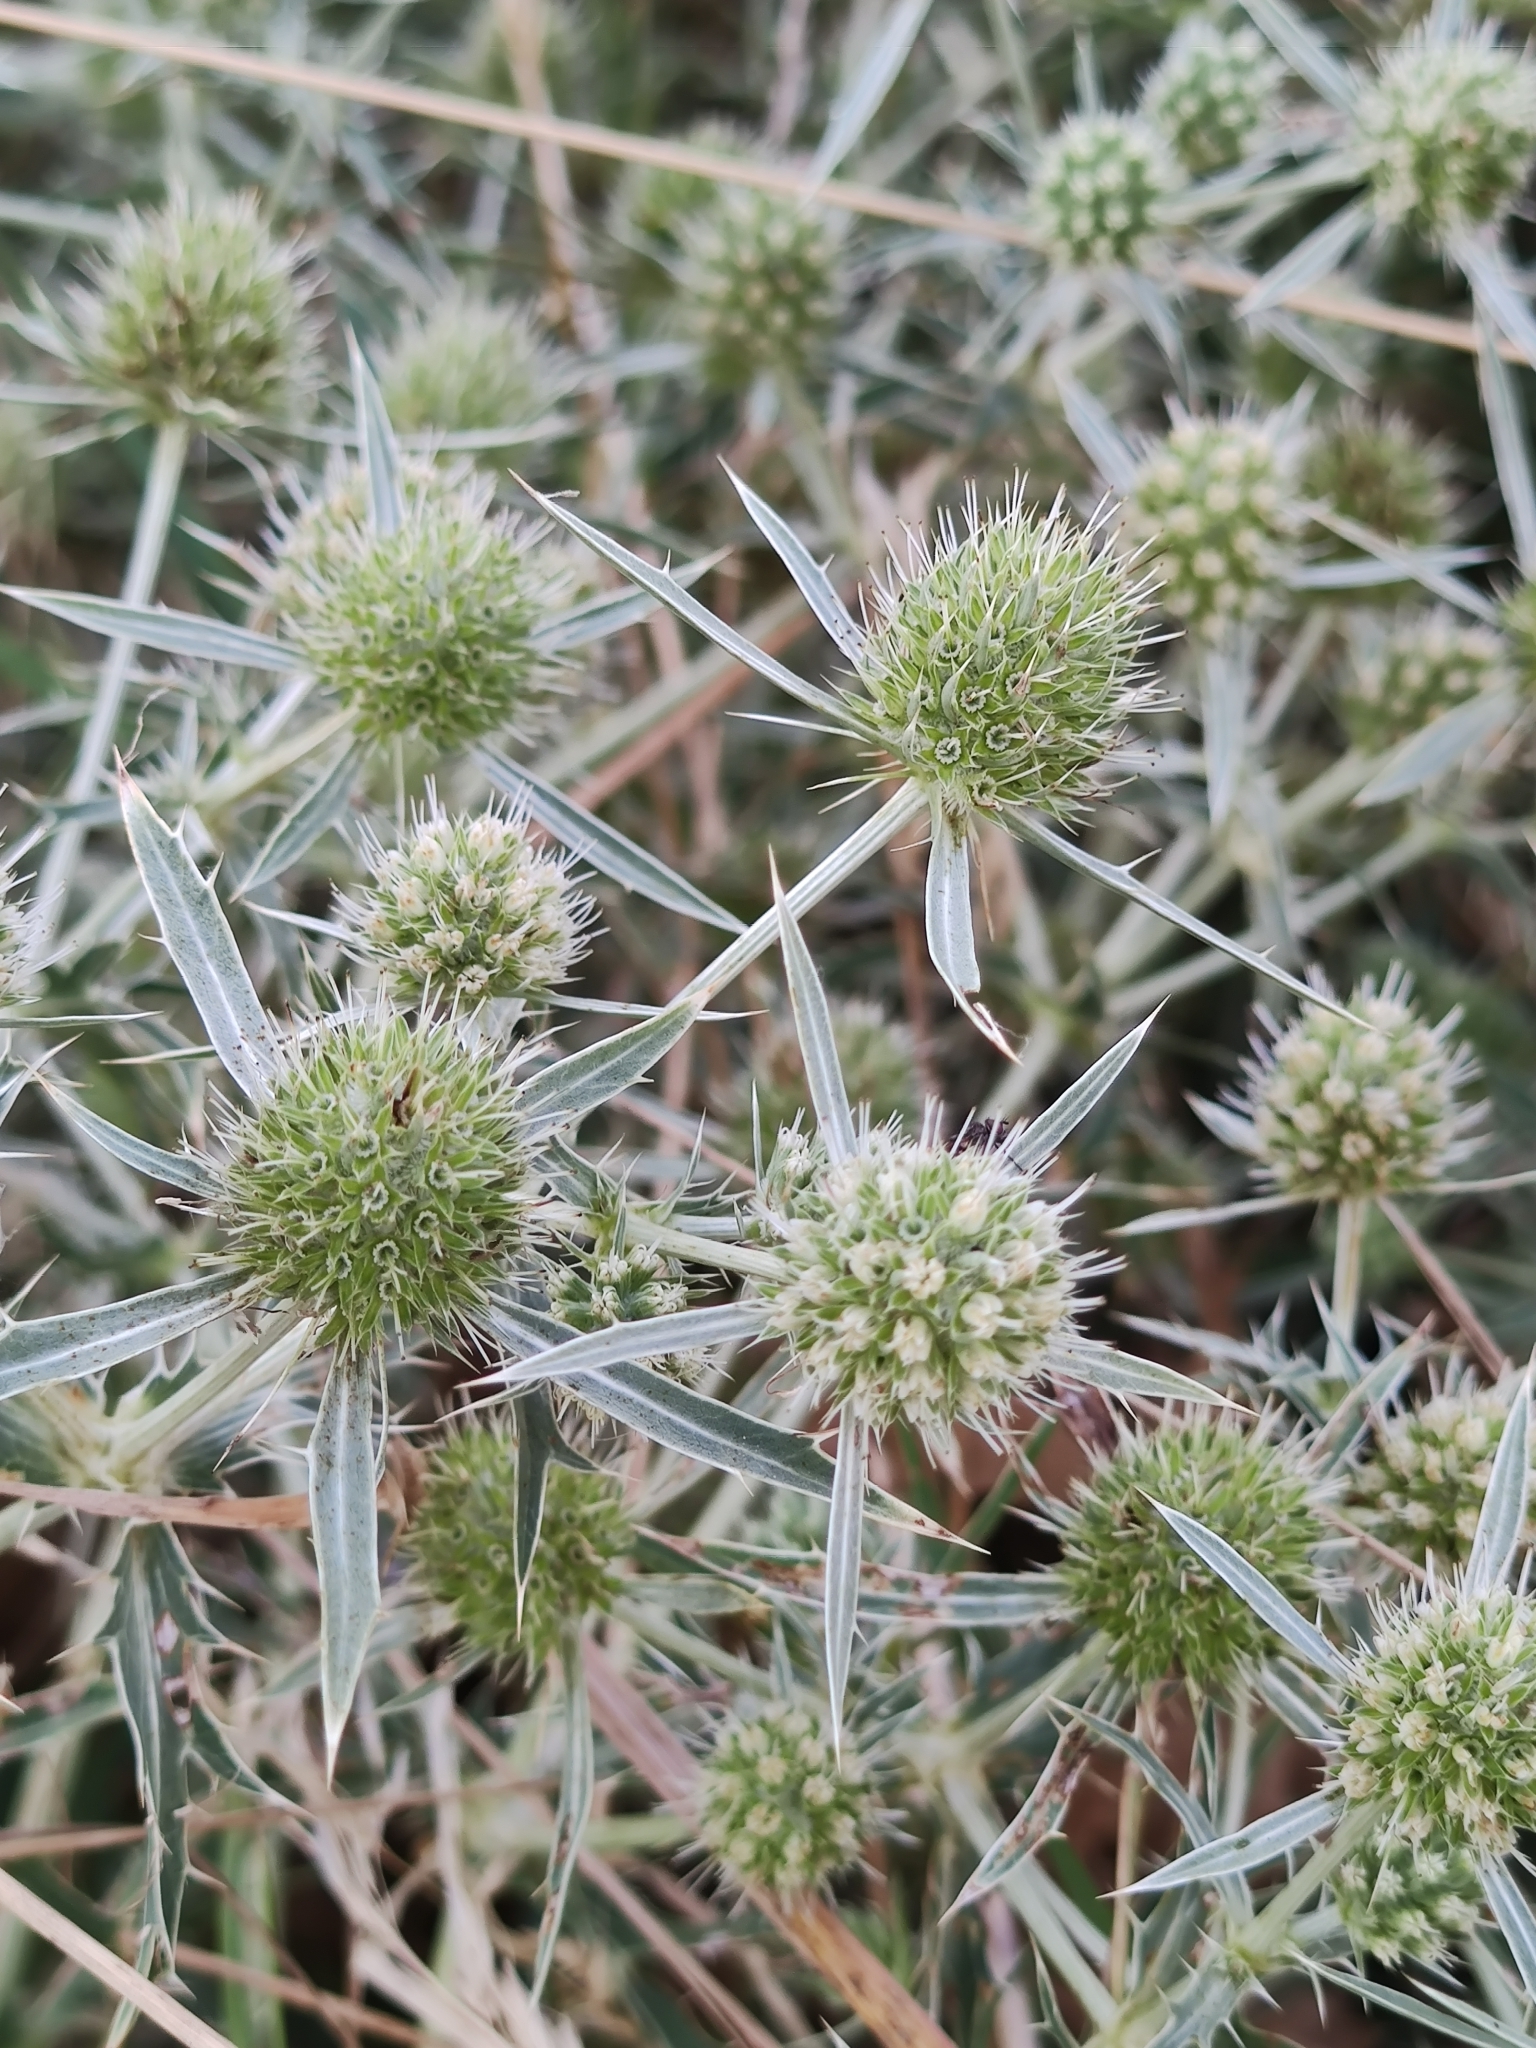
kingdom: Plantae
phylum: Tracheophyta
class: Magnoliopsida
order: Apiales
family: Apiaceae
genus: Eryngium
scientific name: Eryngium campestre
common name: Field eryngo
